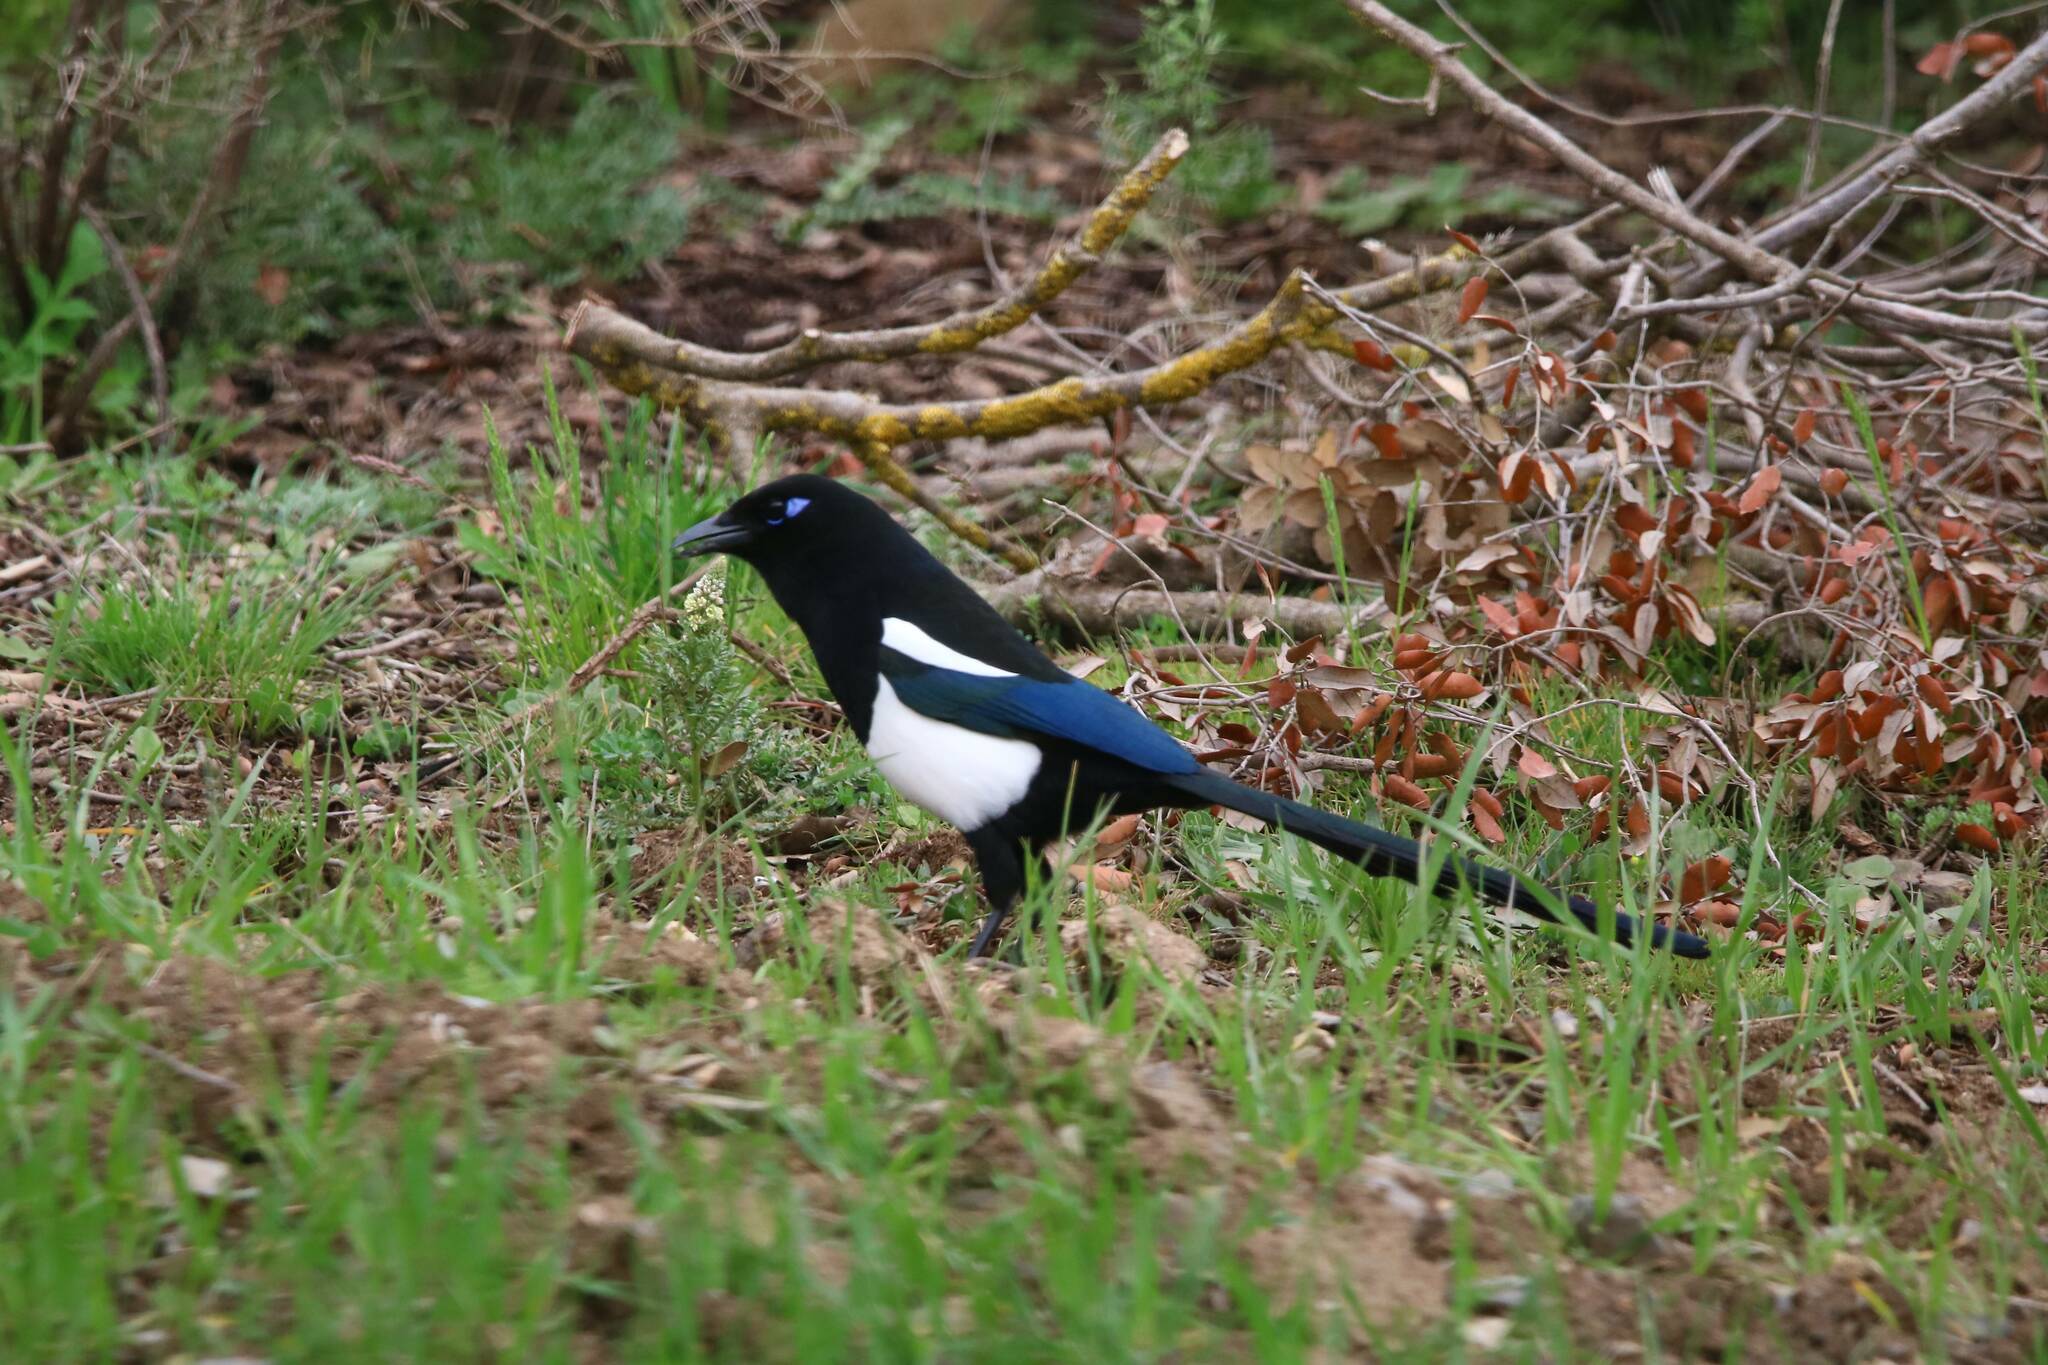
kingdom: Animalia
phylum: Chordata
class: Aves
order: Passeriformes
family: Corvidae
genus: Pica
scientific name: Pica mauritanica
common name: Maghreb magpie
